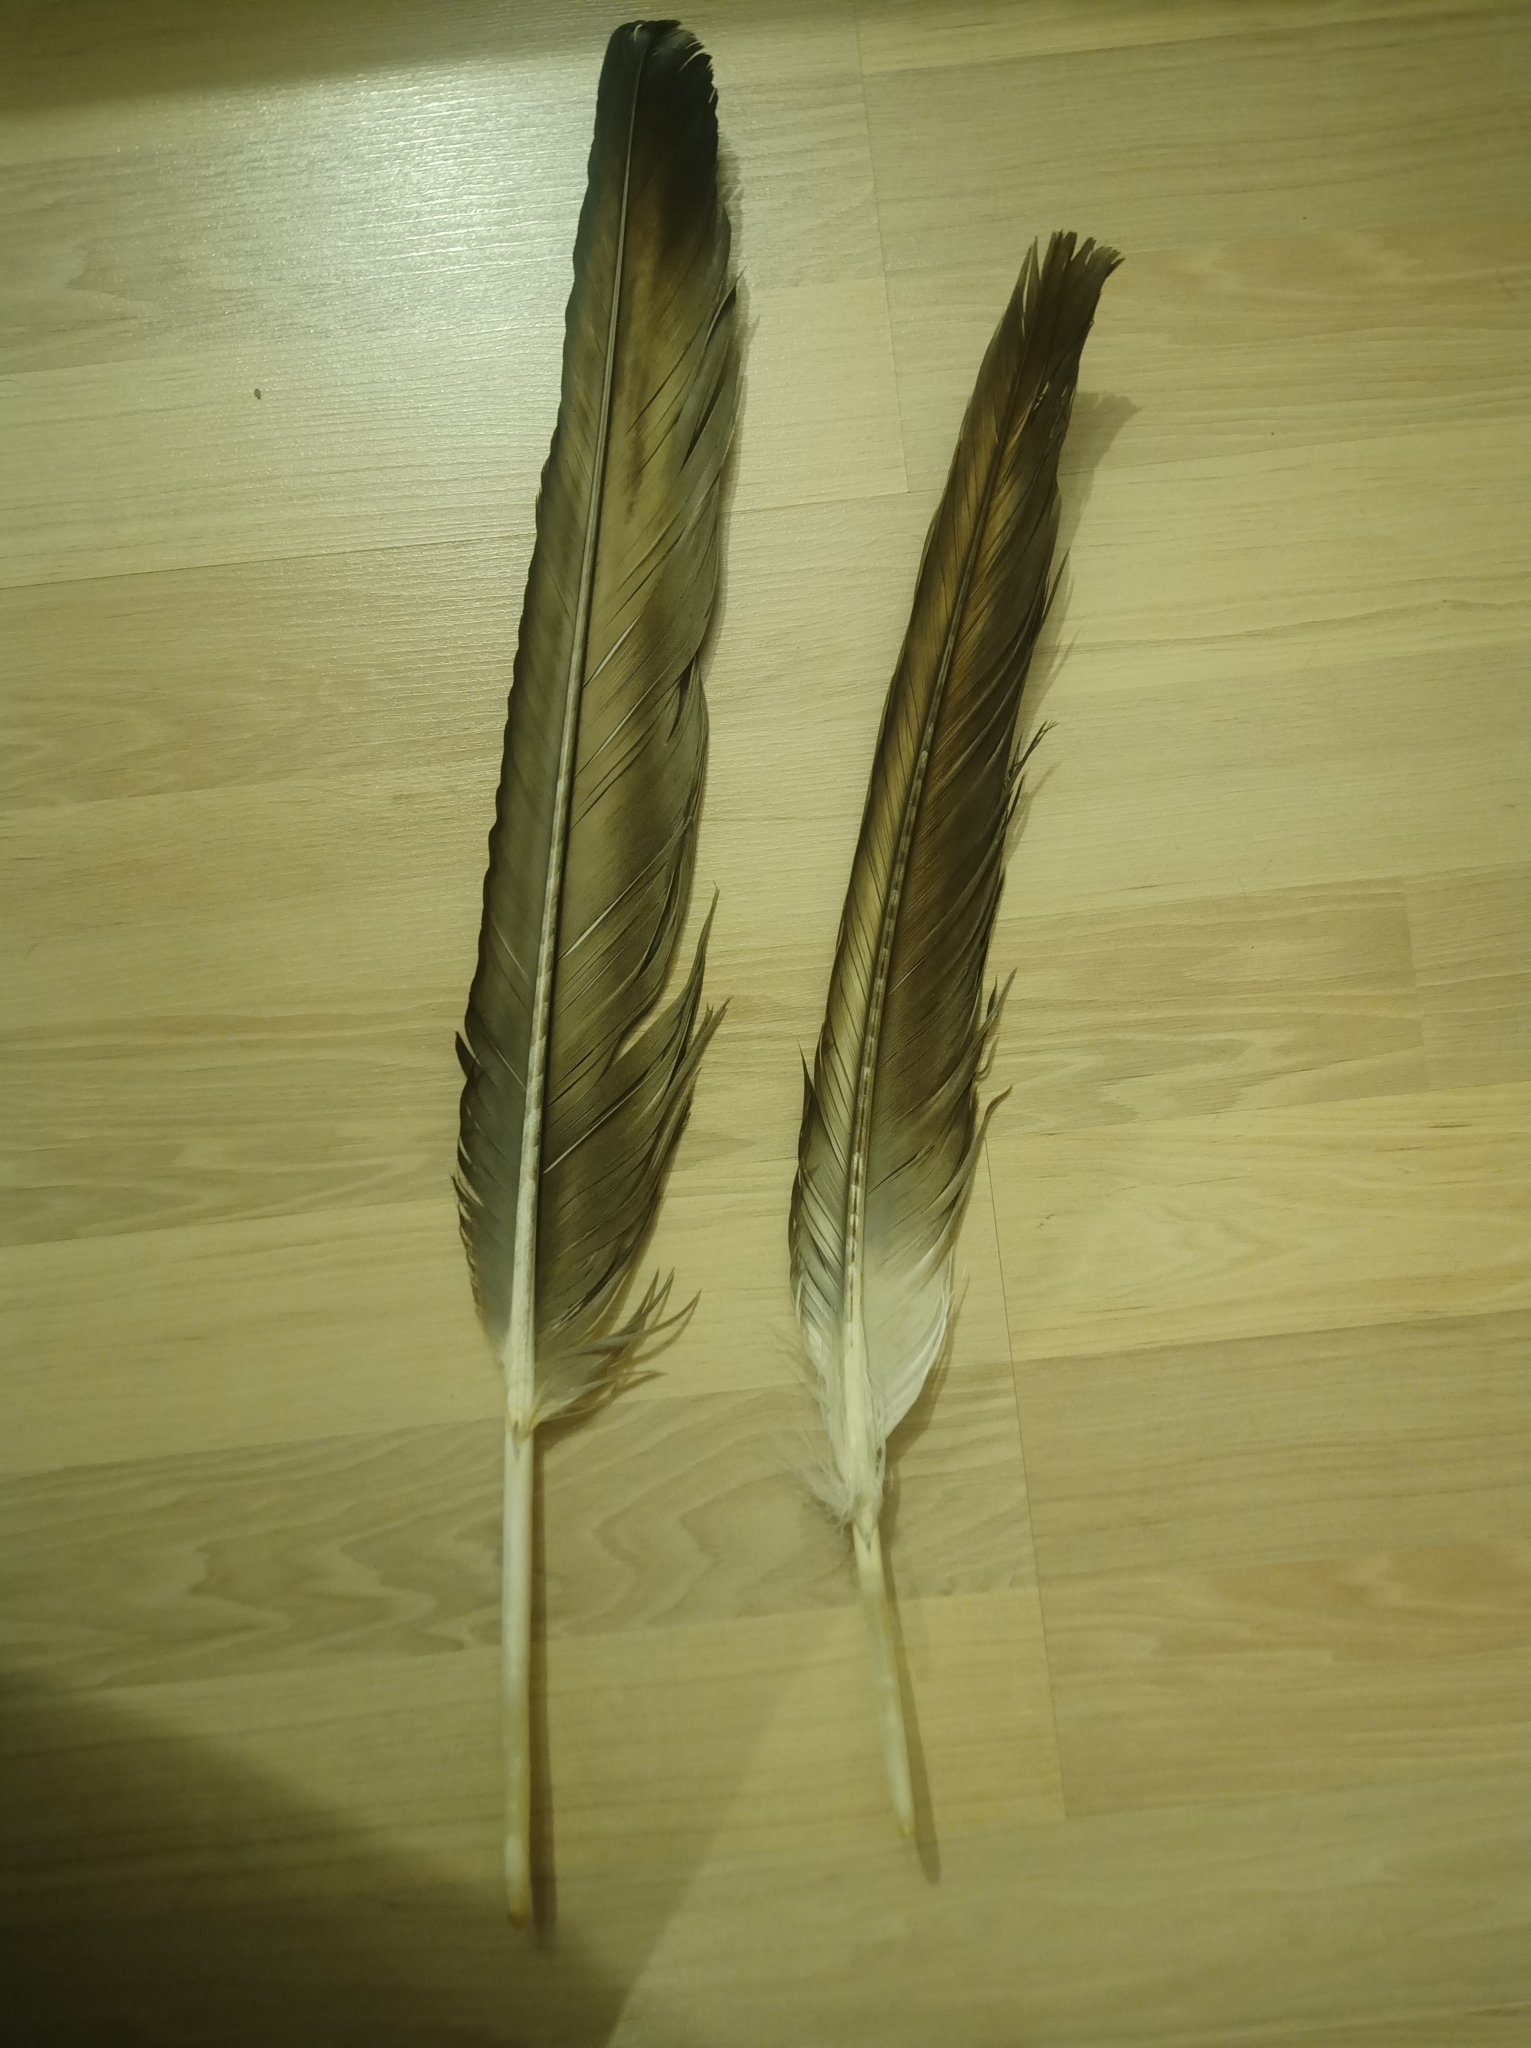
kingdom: Animalia
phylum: Chordata
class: Aves
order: Accipitriformes
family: Accipitridae
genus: Gypaetus
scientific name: Gypaetus barbatus
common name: Bearded vulture
